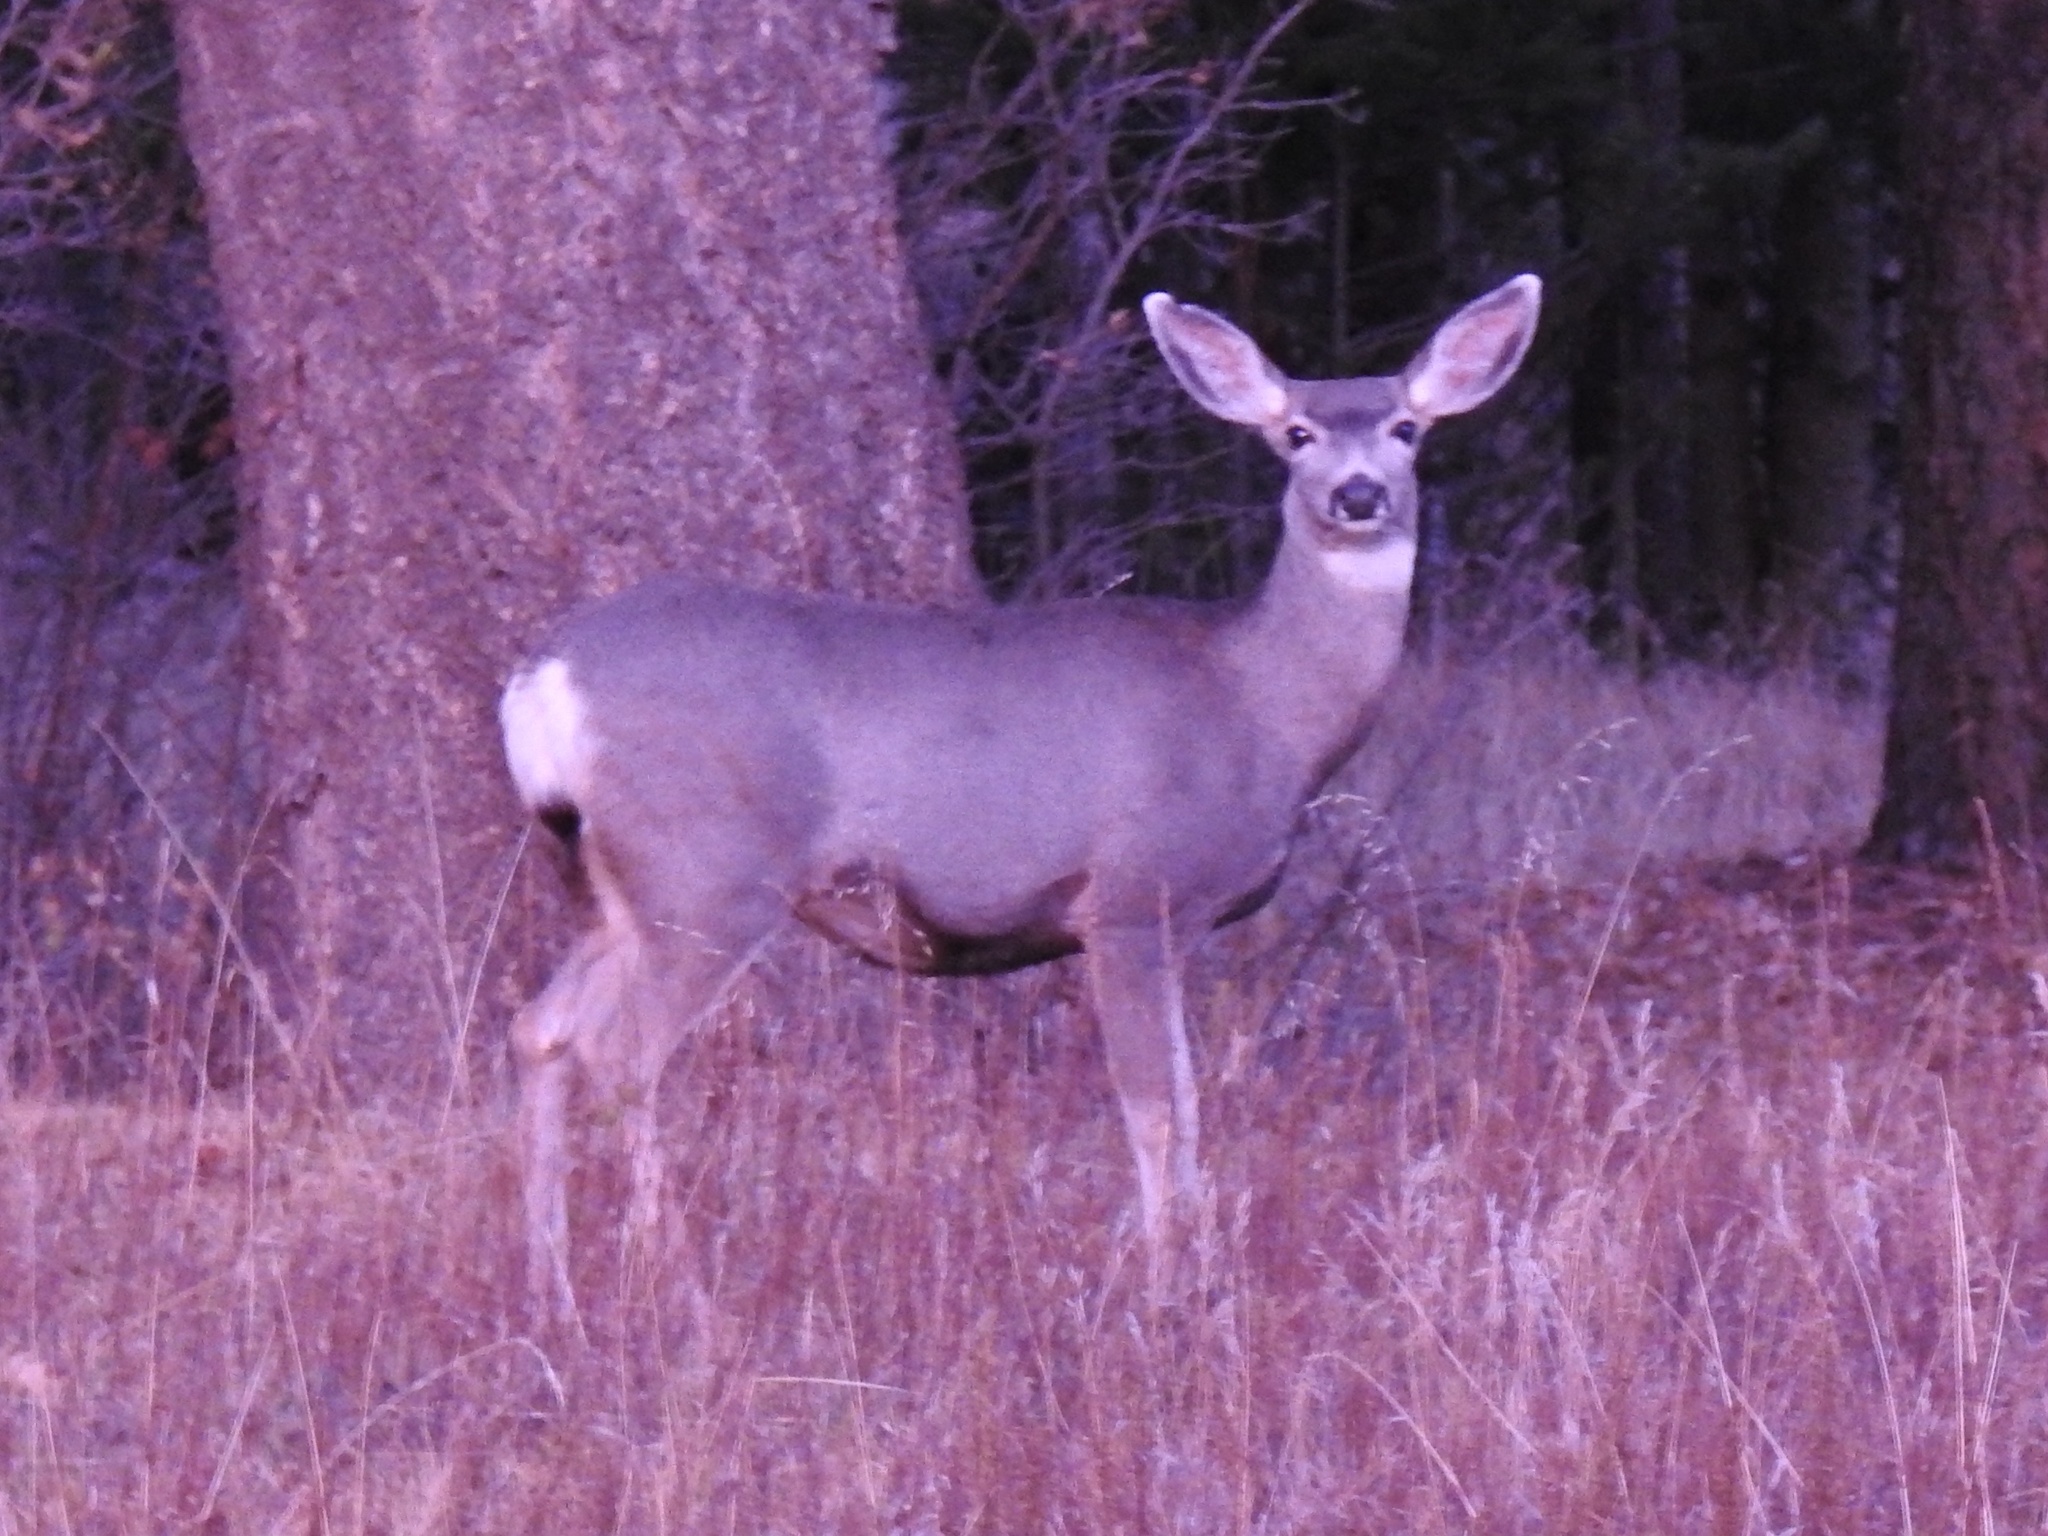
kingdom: Animalia
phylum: Chordata
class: Mammalia
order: Artiodactyla
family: Cervidae
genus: Odocoileus
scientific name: Odocoileus hemionus
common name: Mule deer
